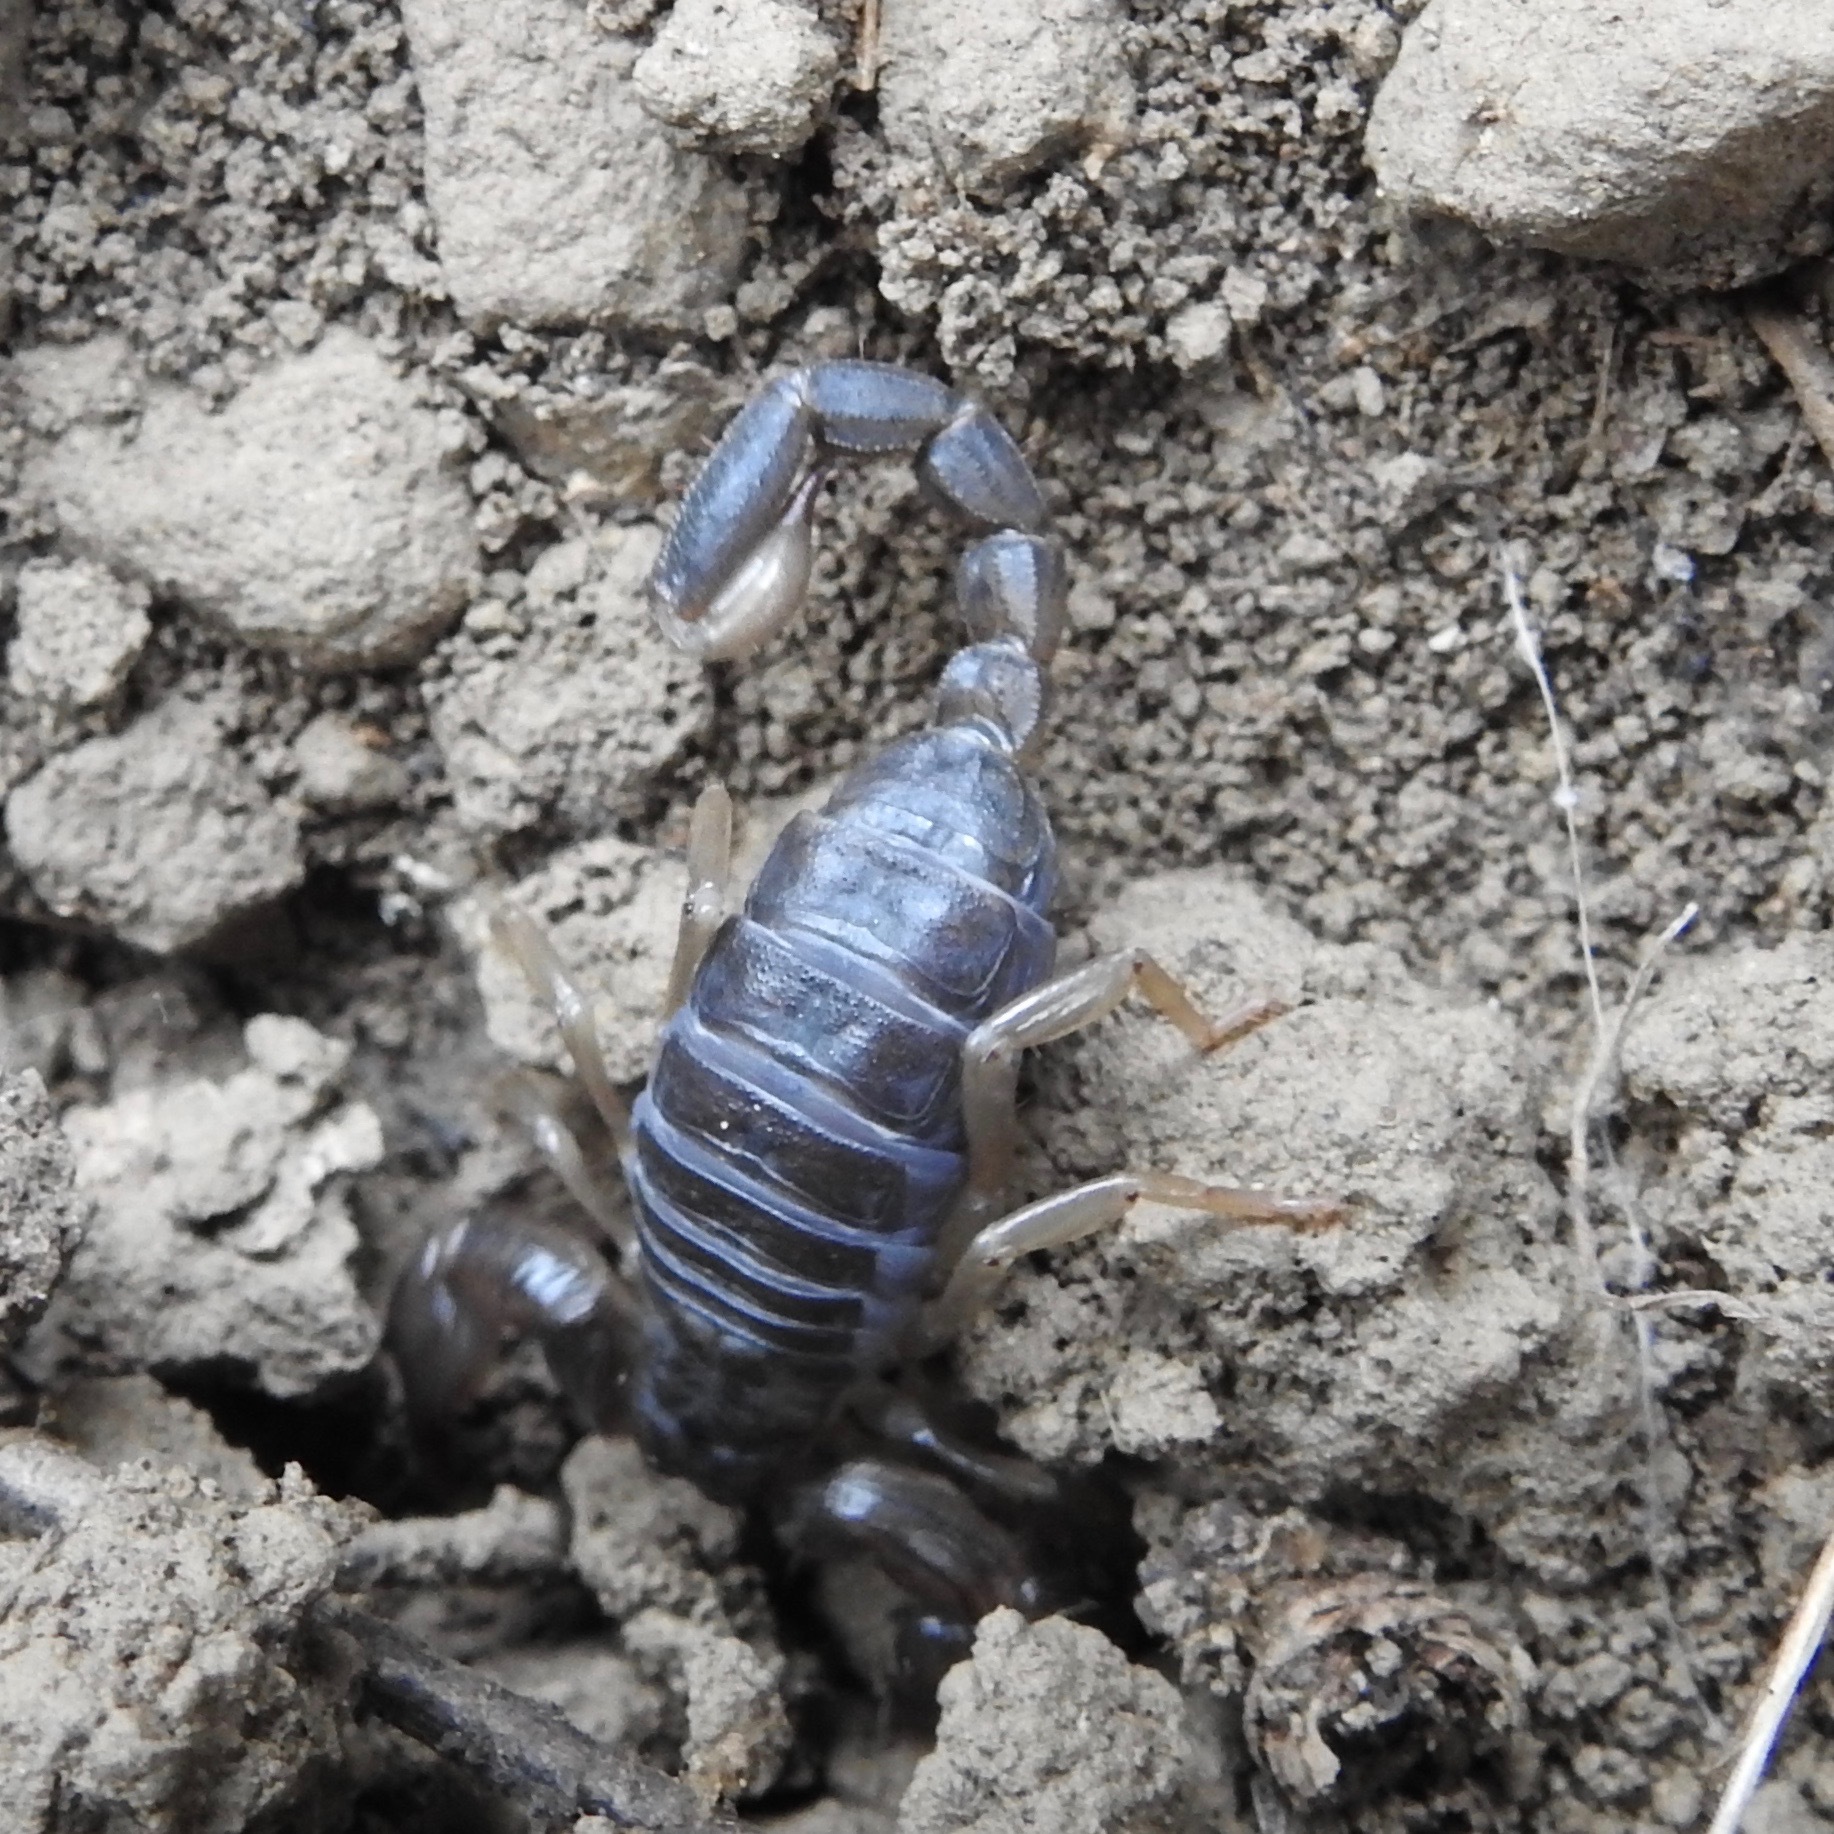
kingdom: Animalia
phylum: Arthropoda
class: Arachnida
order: Scorpiones
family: Chactidae
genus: Uroctonus
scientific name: Uroctonus mordax
